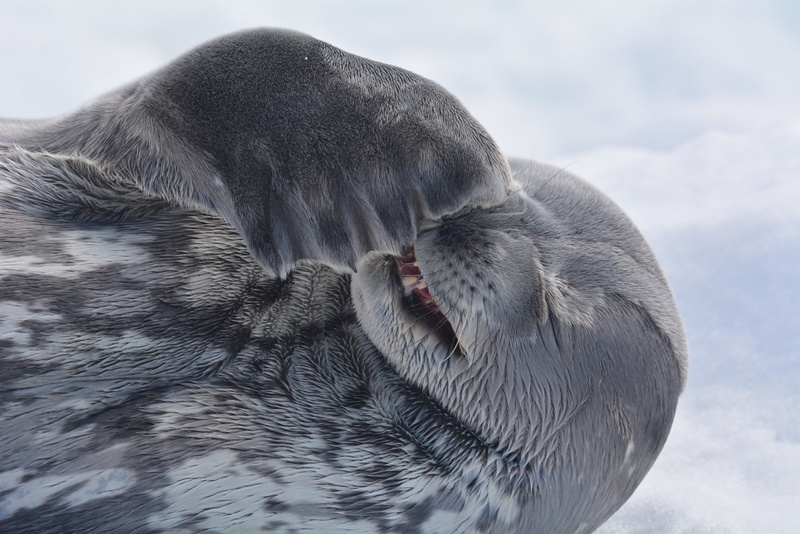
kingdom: Animalia
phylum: Chordata
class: Mammalia
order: Carnivora
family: Phocidae
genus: Leptonychotes
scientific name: Leptonychotes weddellii
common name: Weddell seal
